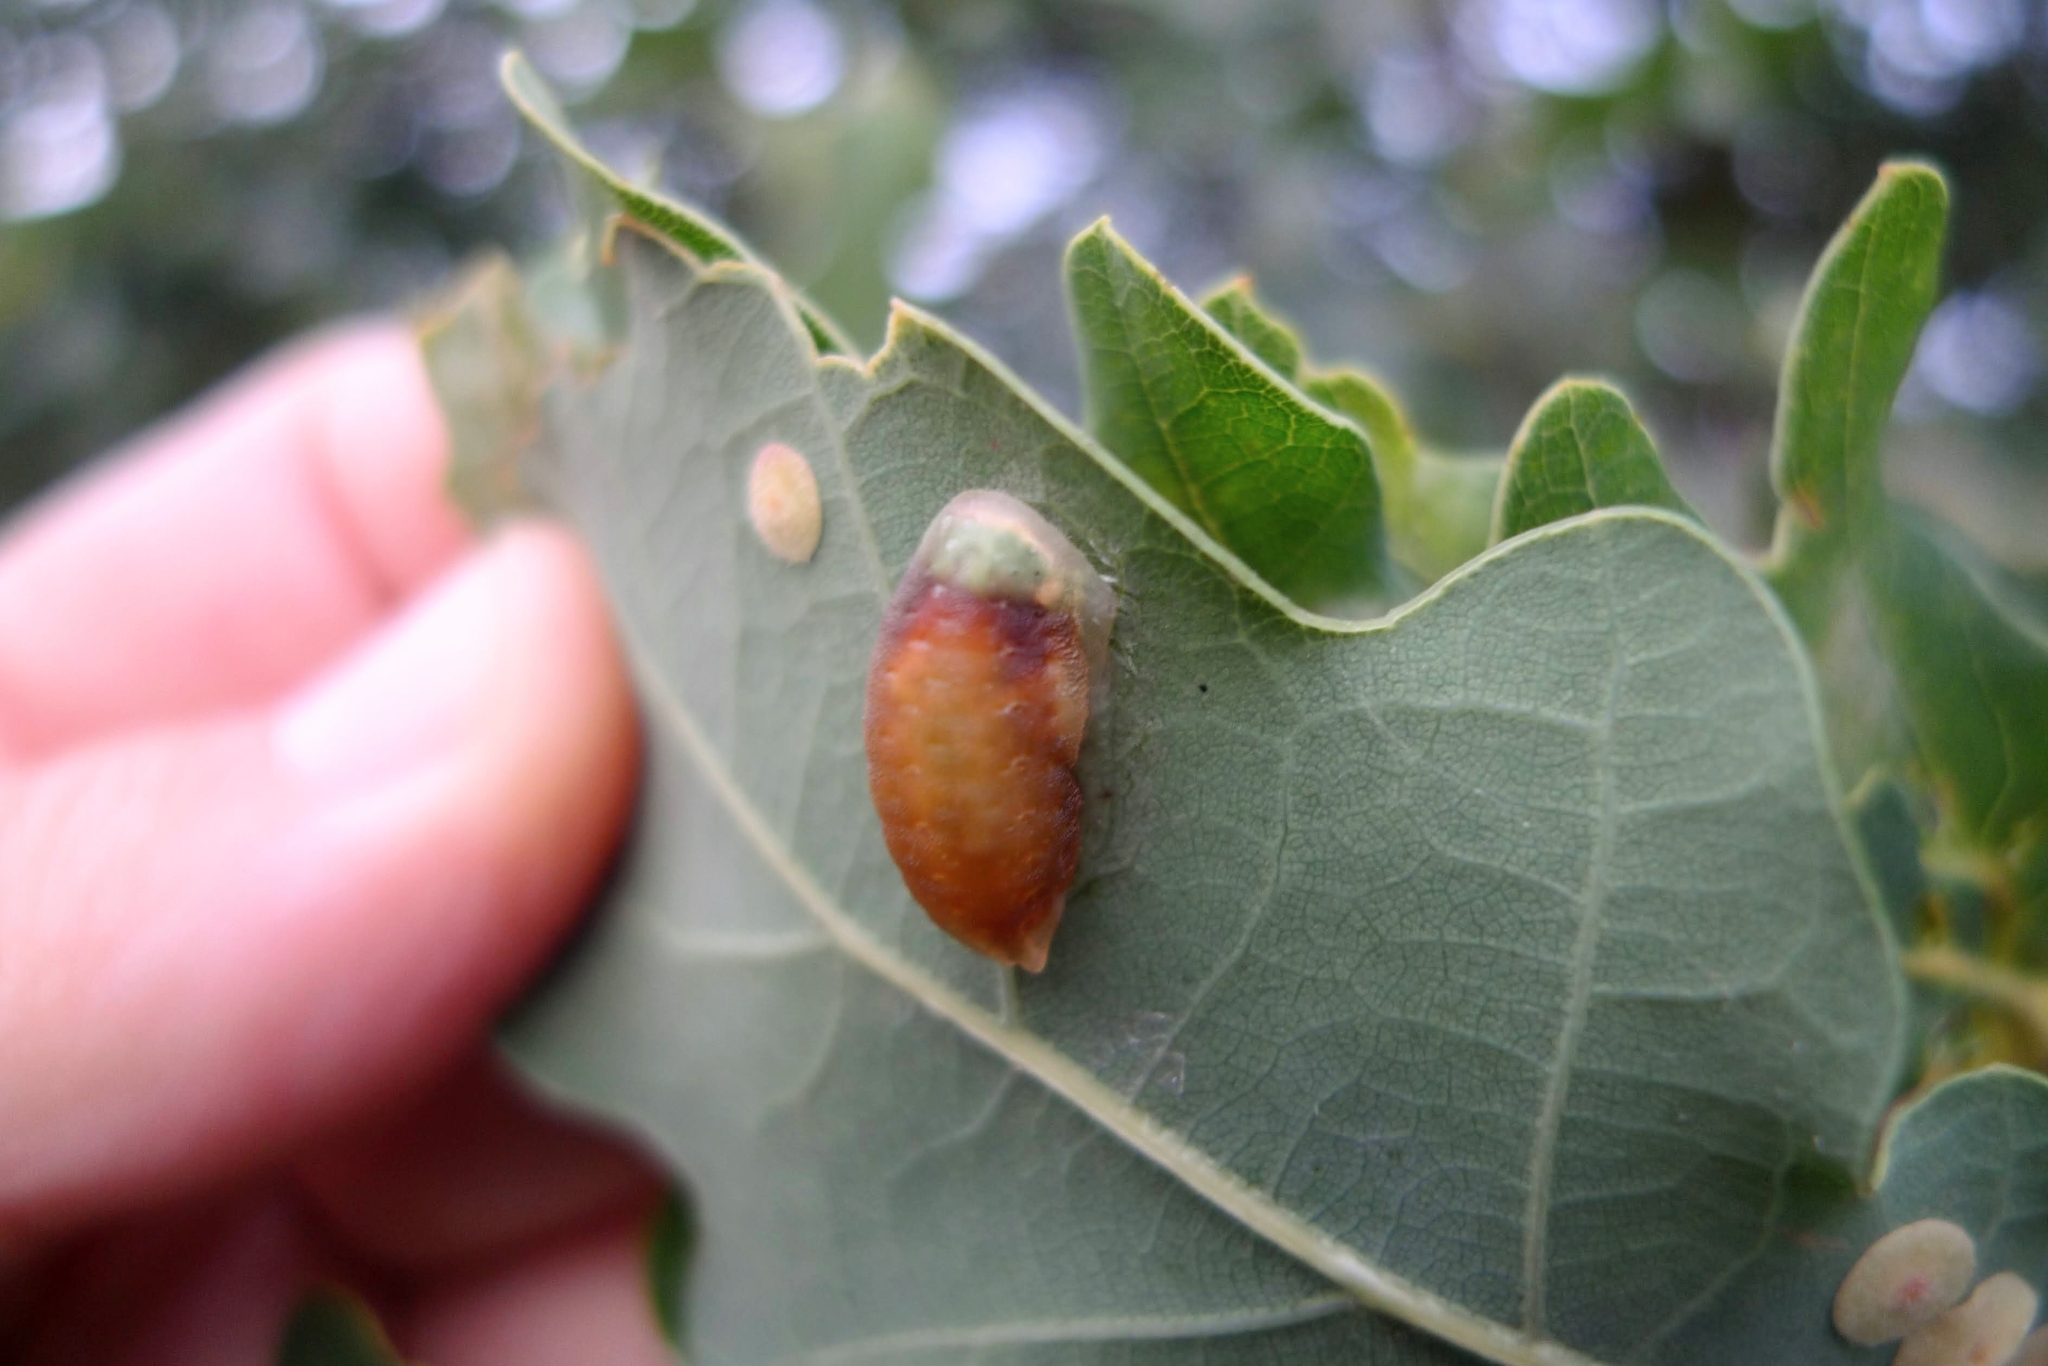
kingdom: Animalia
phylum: Arthropoda
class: Insecta
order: Lepidoptera
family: Limacodidae
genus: Apoda
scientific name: Apoda limacodes
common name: Festoon
